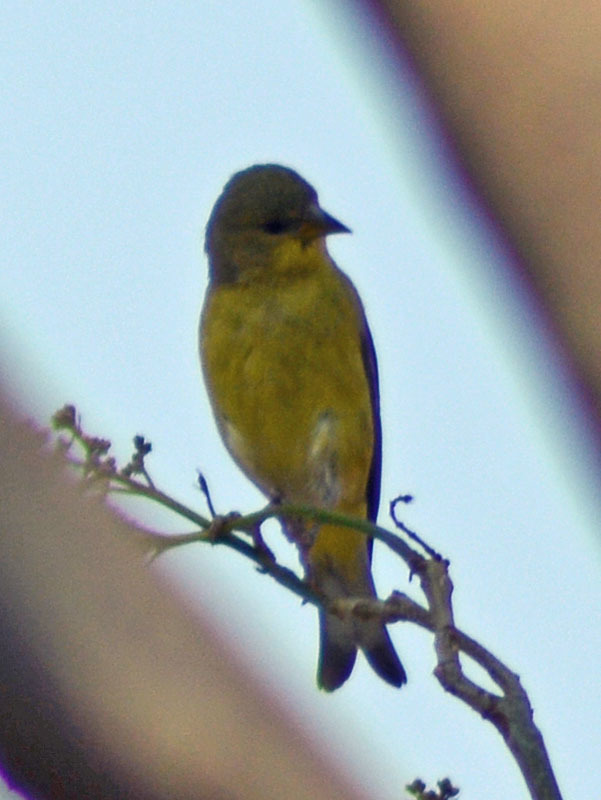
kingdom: Animalia
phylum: Chordata
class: Aves
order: Passeriformes
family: Fringillidae
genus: Spinus
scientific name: Spinus psaltria
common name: Lesser goldfinch
